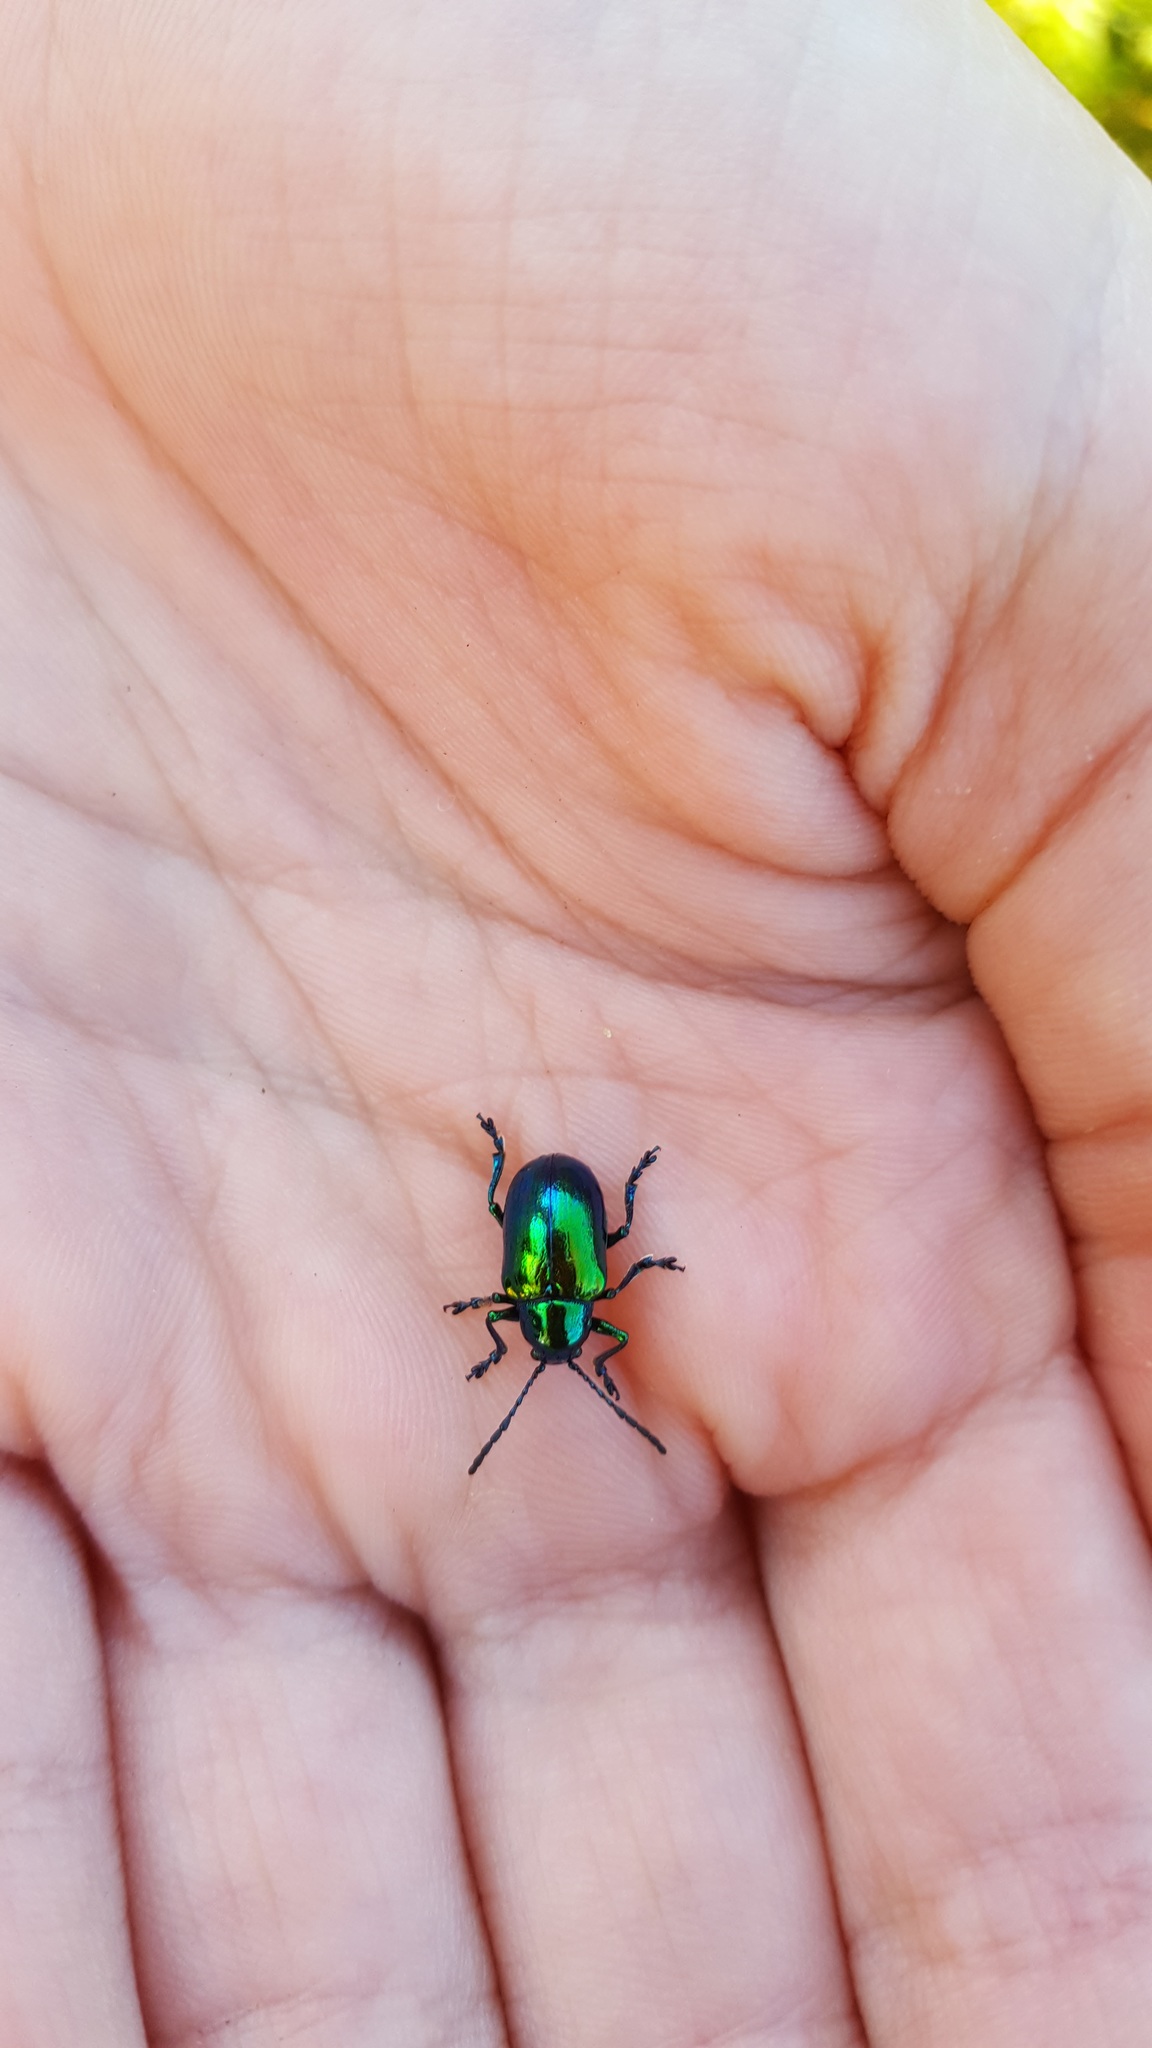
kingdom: Animalia
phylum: Arthropoda
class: Insecta
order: Coleoptera
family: Chrysomelidae
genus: Chrysochus
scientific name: Chrysochus auratus
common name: Dogbane leaf beetle
